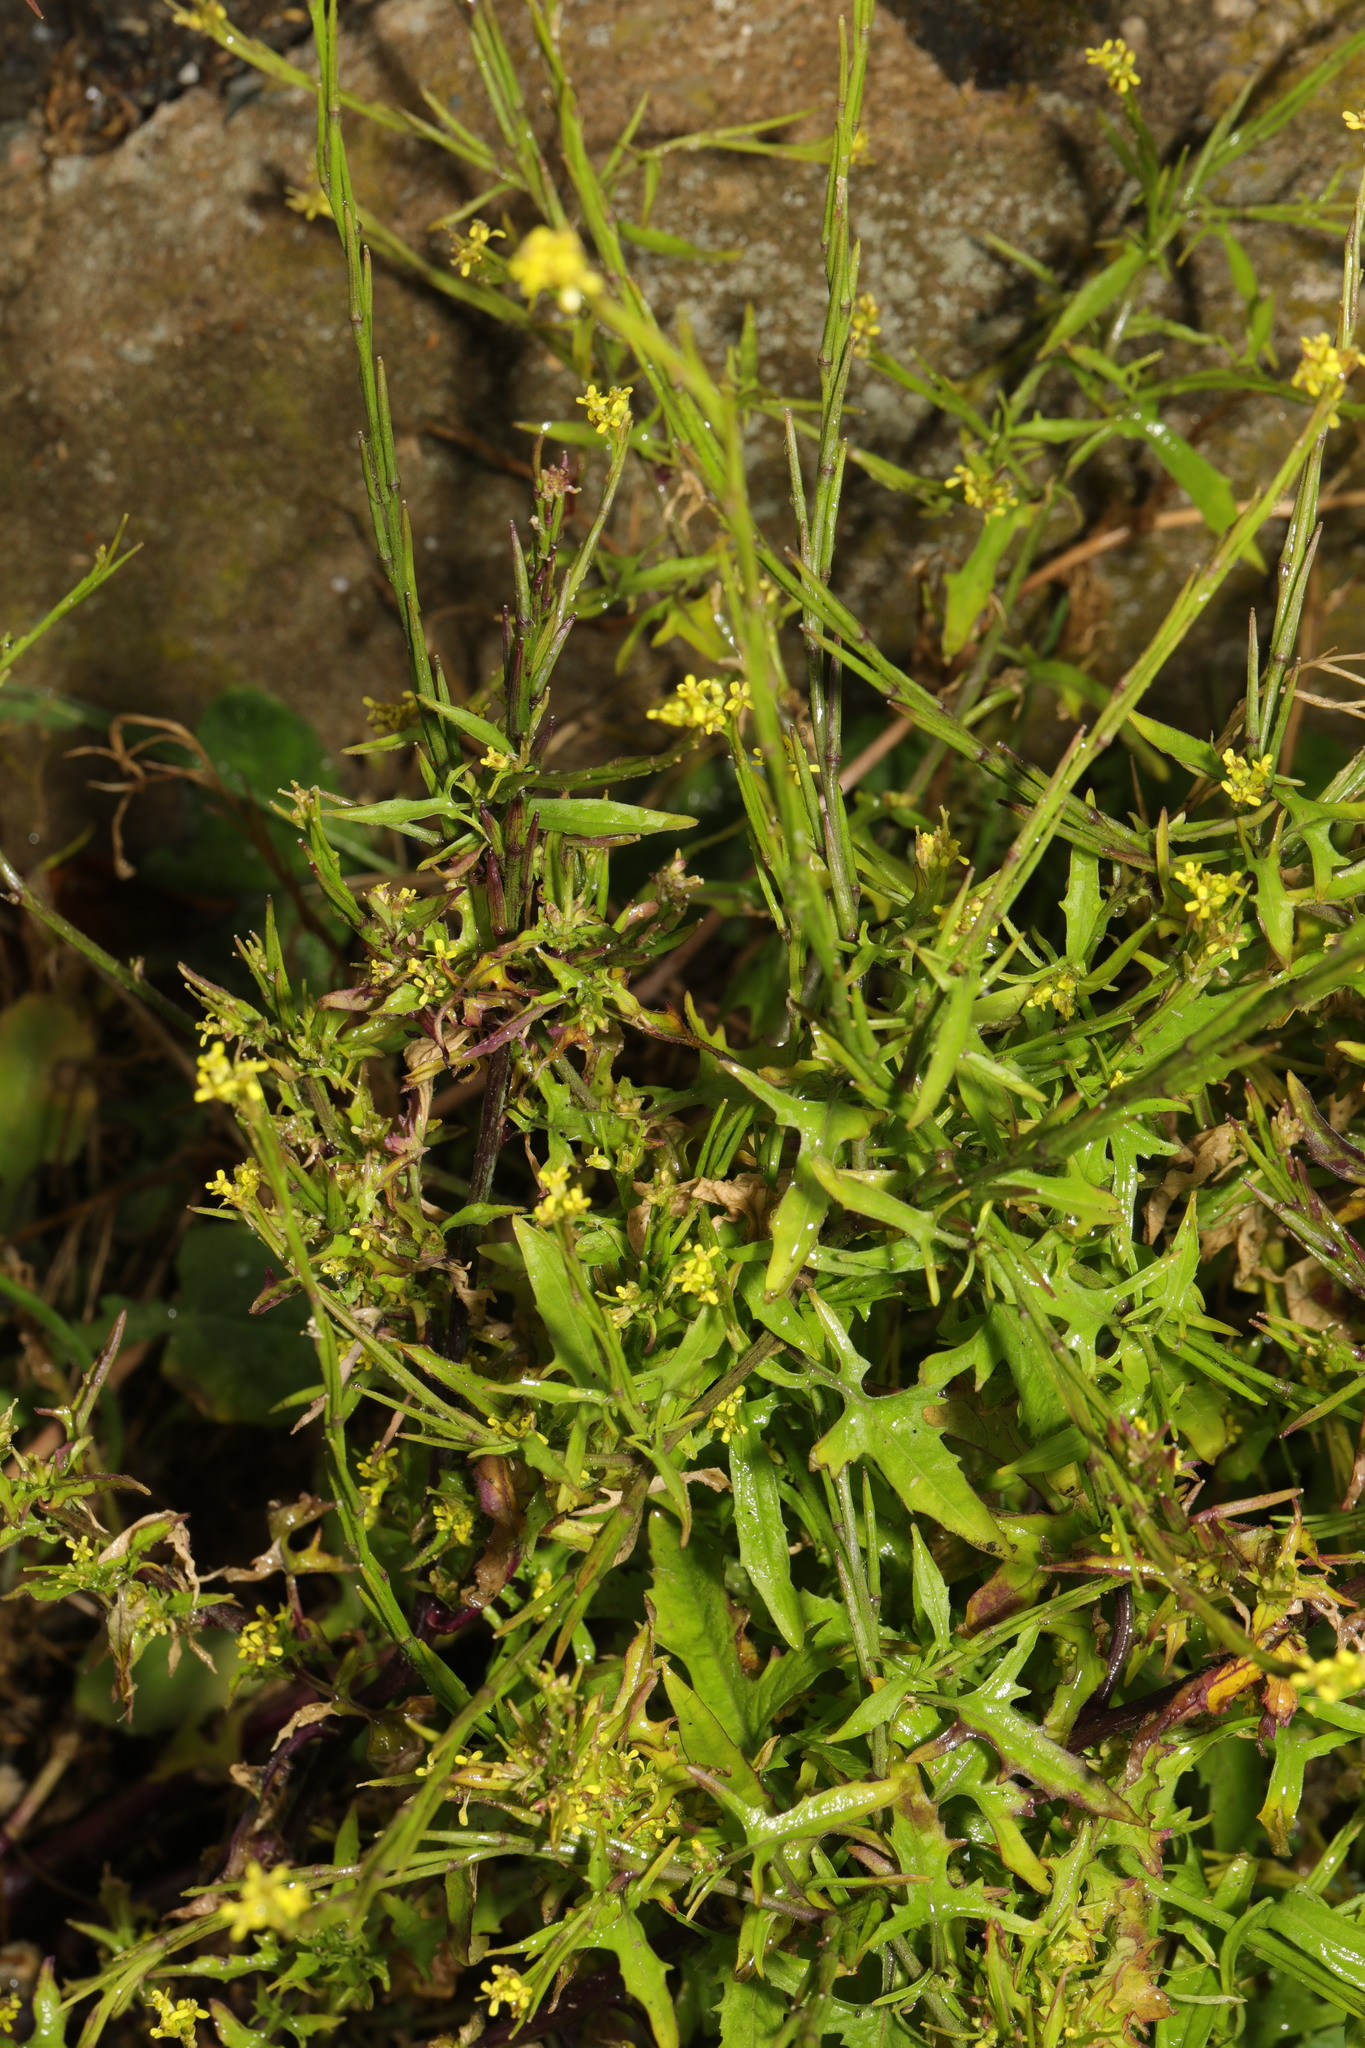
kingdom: Plantae
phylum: Tracheophyta
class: Magnoliopsida
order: Brassicales
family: Brassicaceae
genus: Sisymbrium
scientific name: Sisymbrium officinale
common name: Hedge mustard
